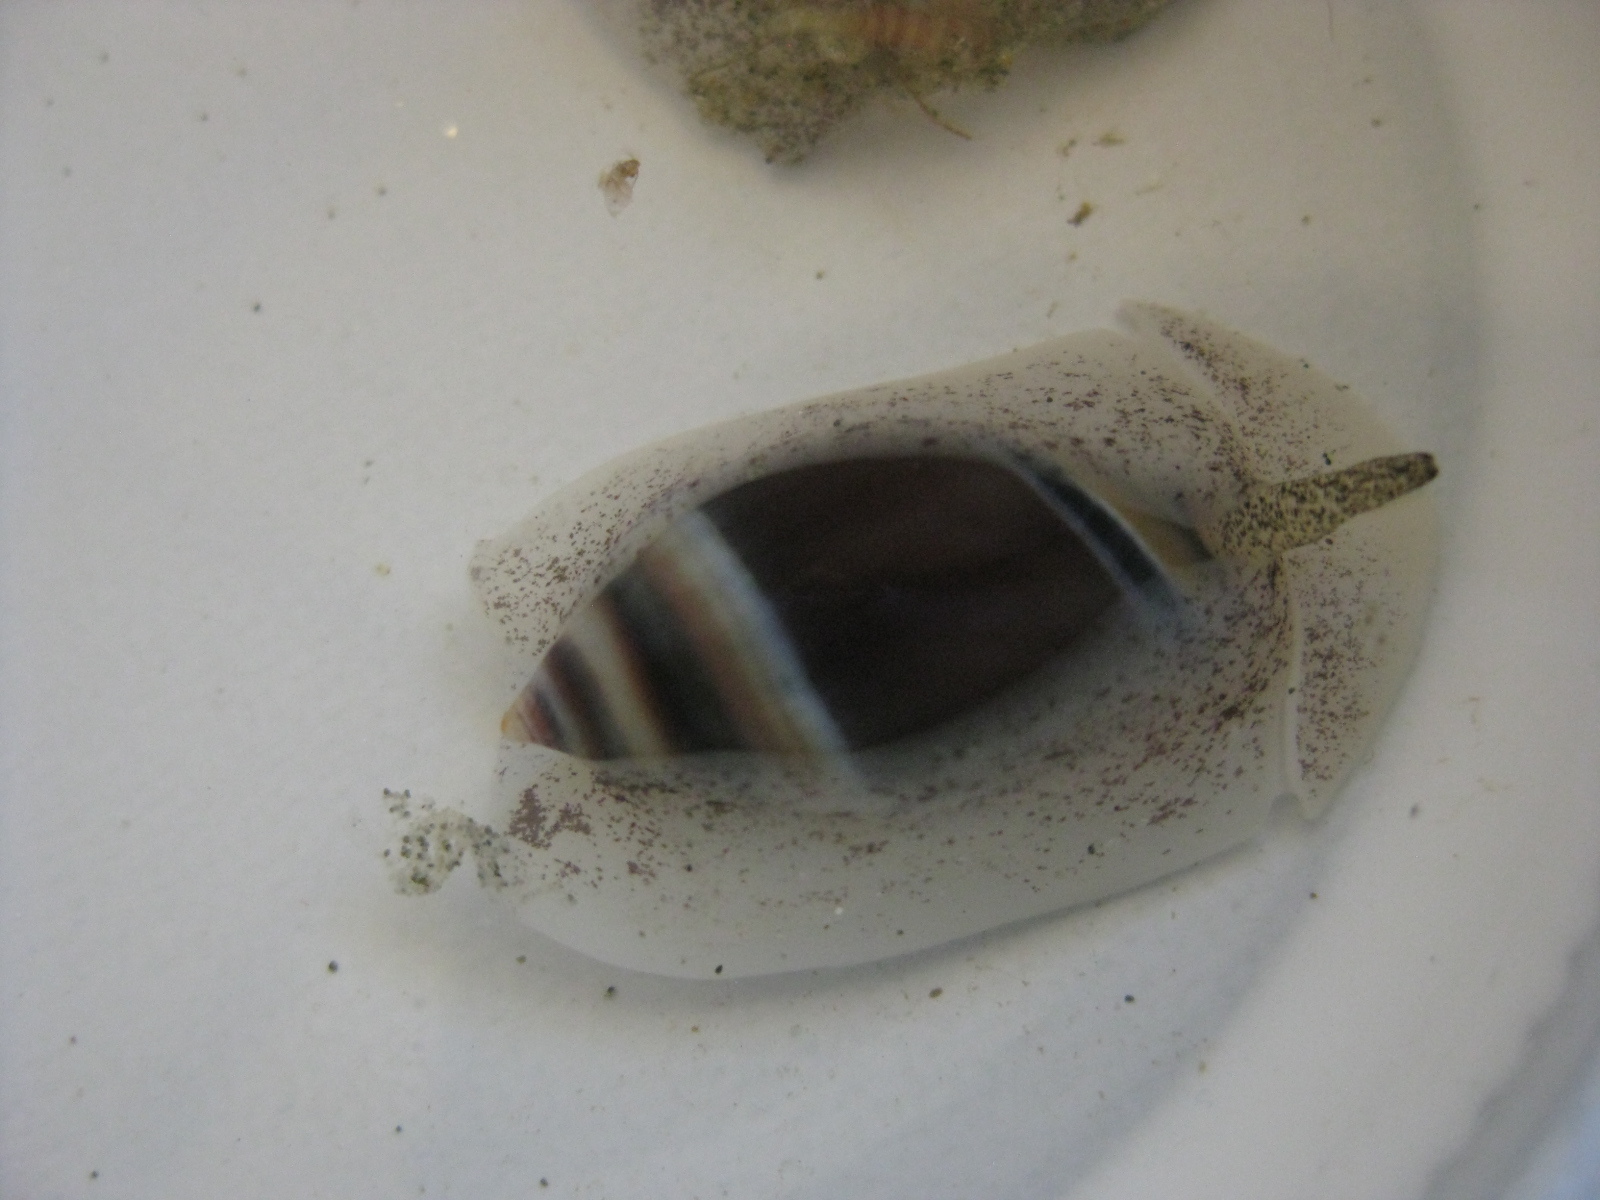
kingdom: Animalia
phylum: Mollusca
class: Gastropoda
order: Neogastropoda
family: Ancillariidae
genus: Amalda
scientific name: Amalda australis
